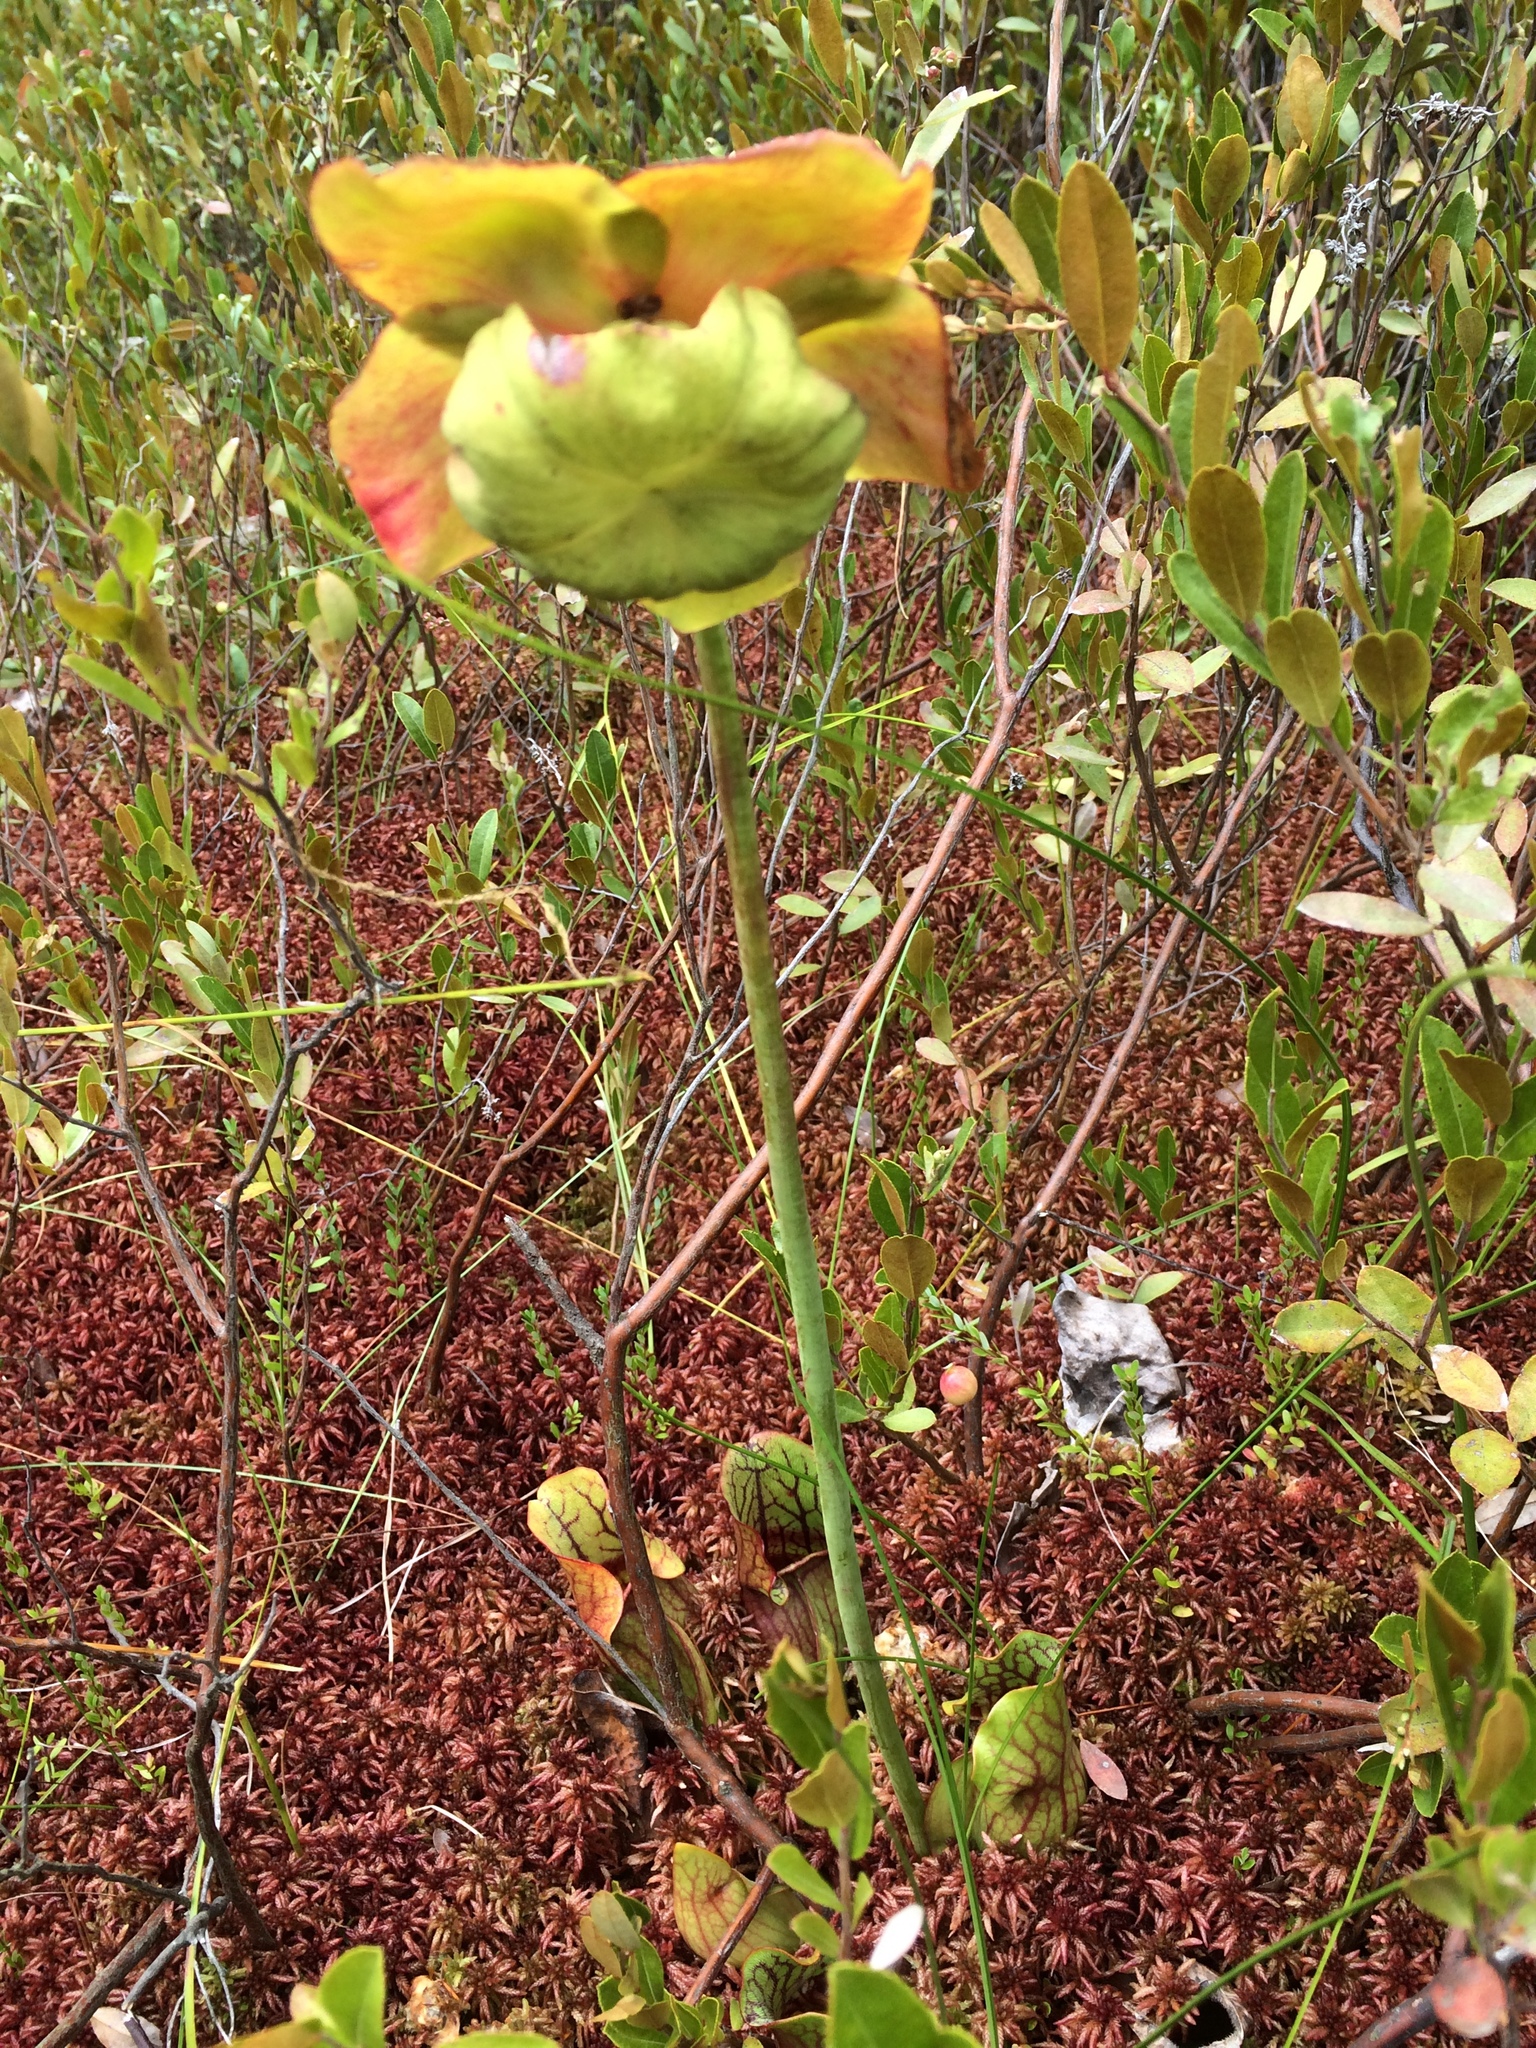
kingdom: Plantae
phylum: Tracheophyta
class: Magnoliopsida
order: Ericales
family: Sarraceniaceae
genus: Sarracenia
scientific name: Sarracenia purpurea
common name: Pitcherplant
